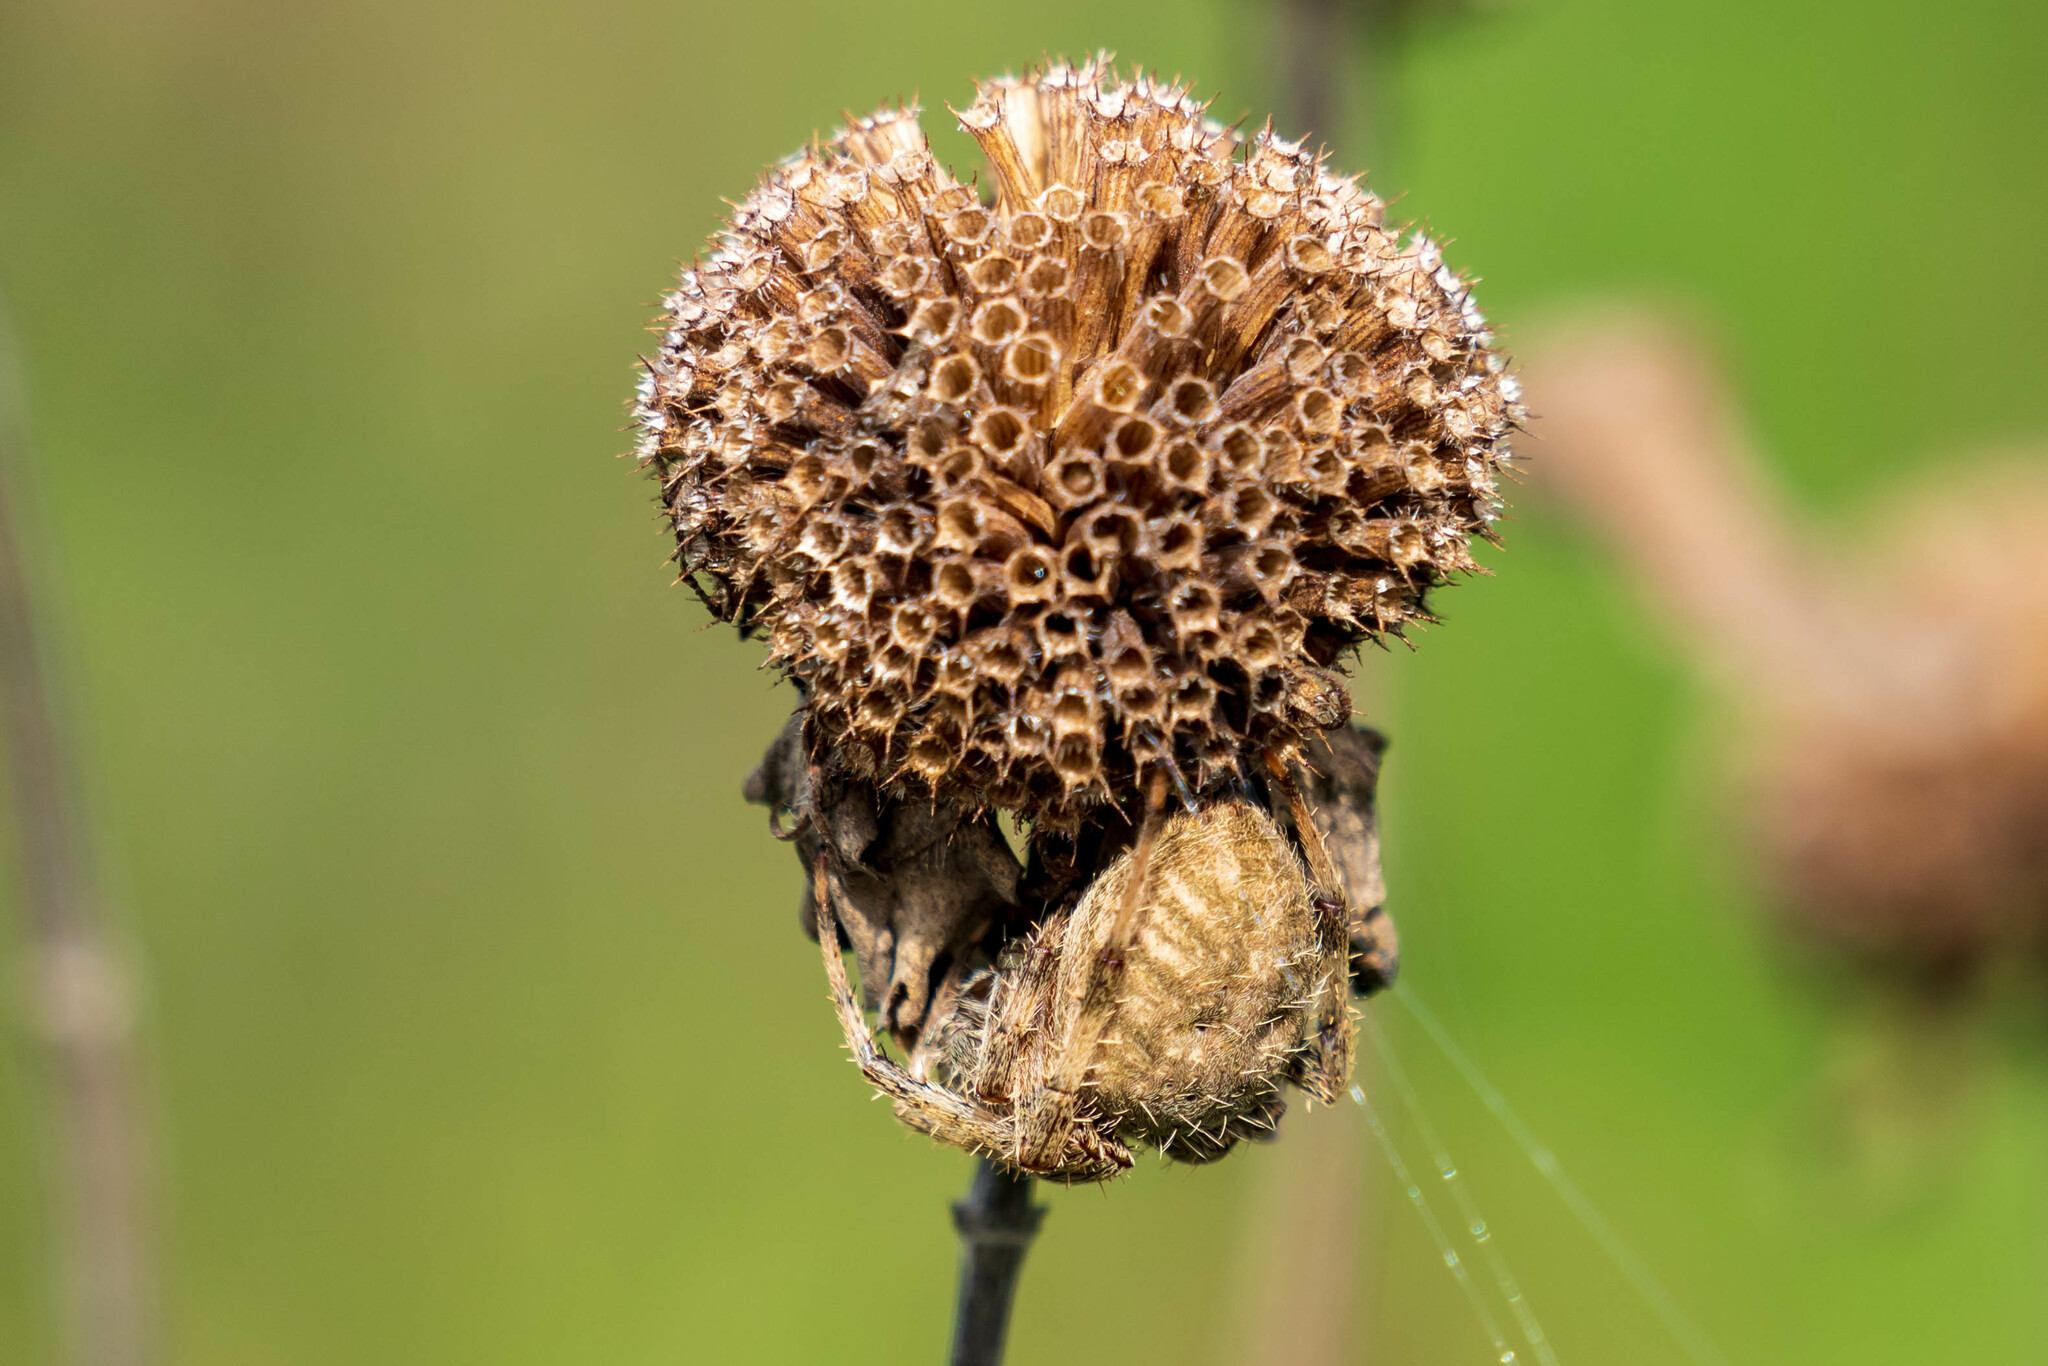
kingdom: Animalia
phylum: Arthropoda
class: Arachnida
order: Araneae
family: Araneidae
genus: Neoscona
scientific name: Neoscona crucifera
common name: Spotted orbweaver
